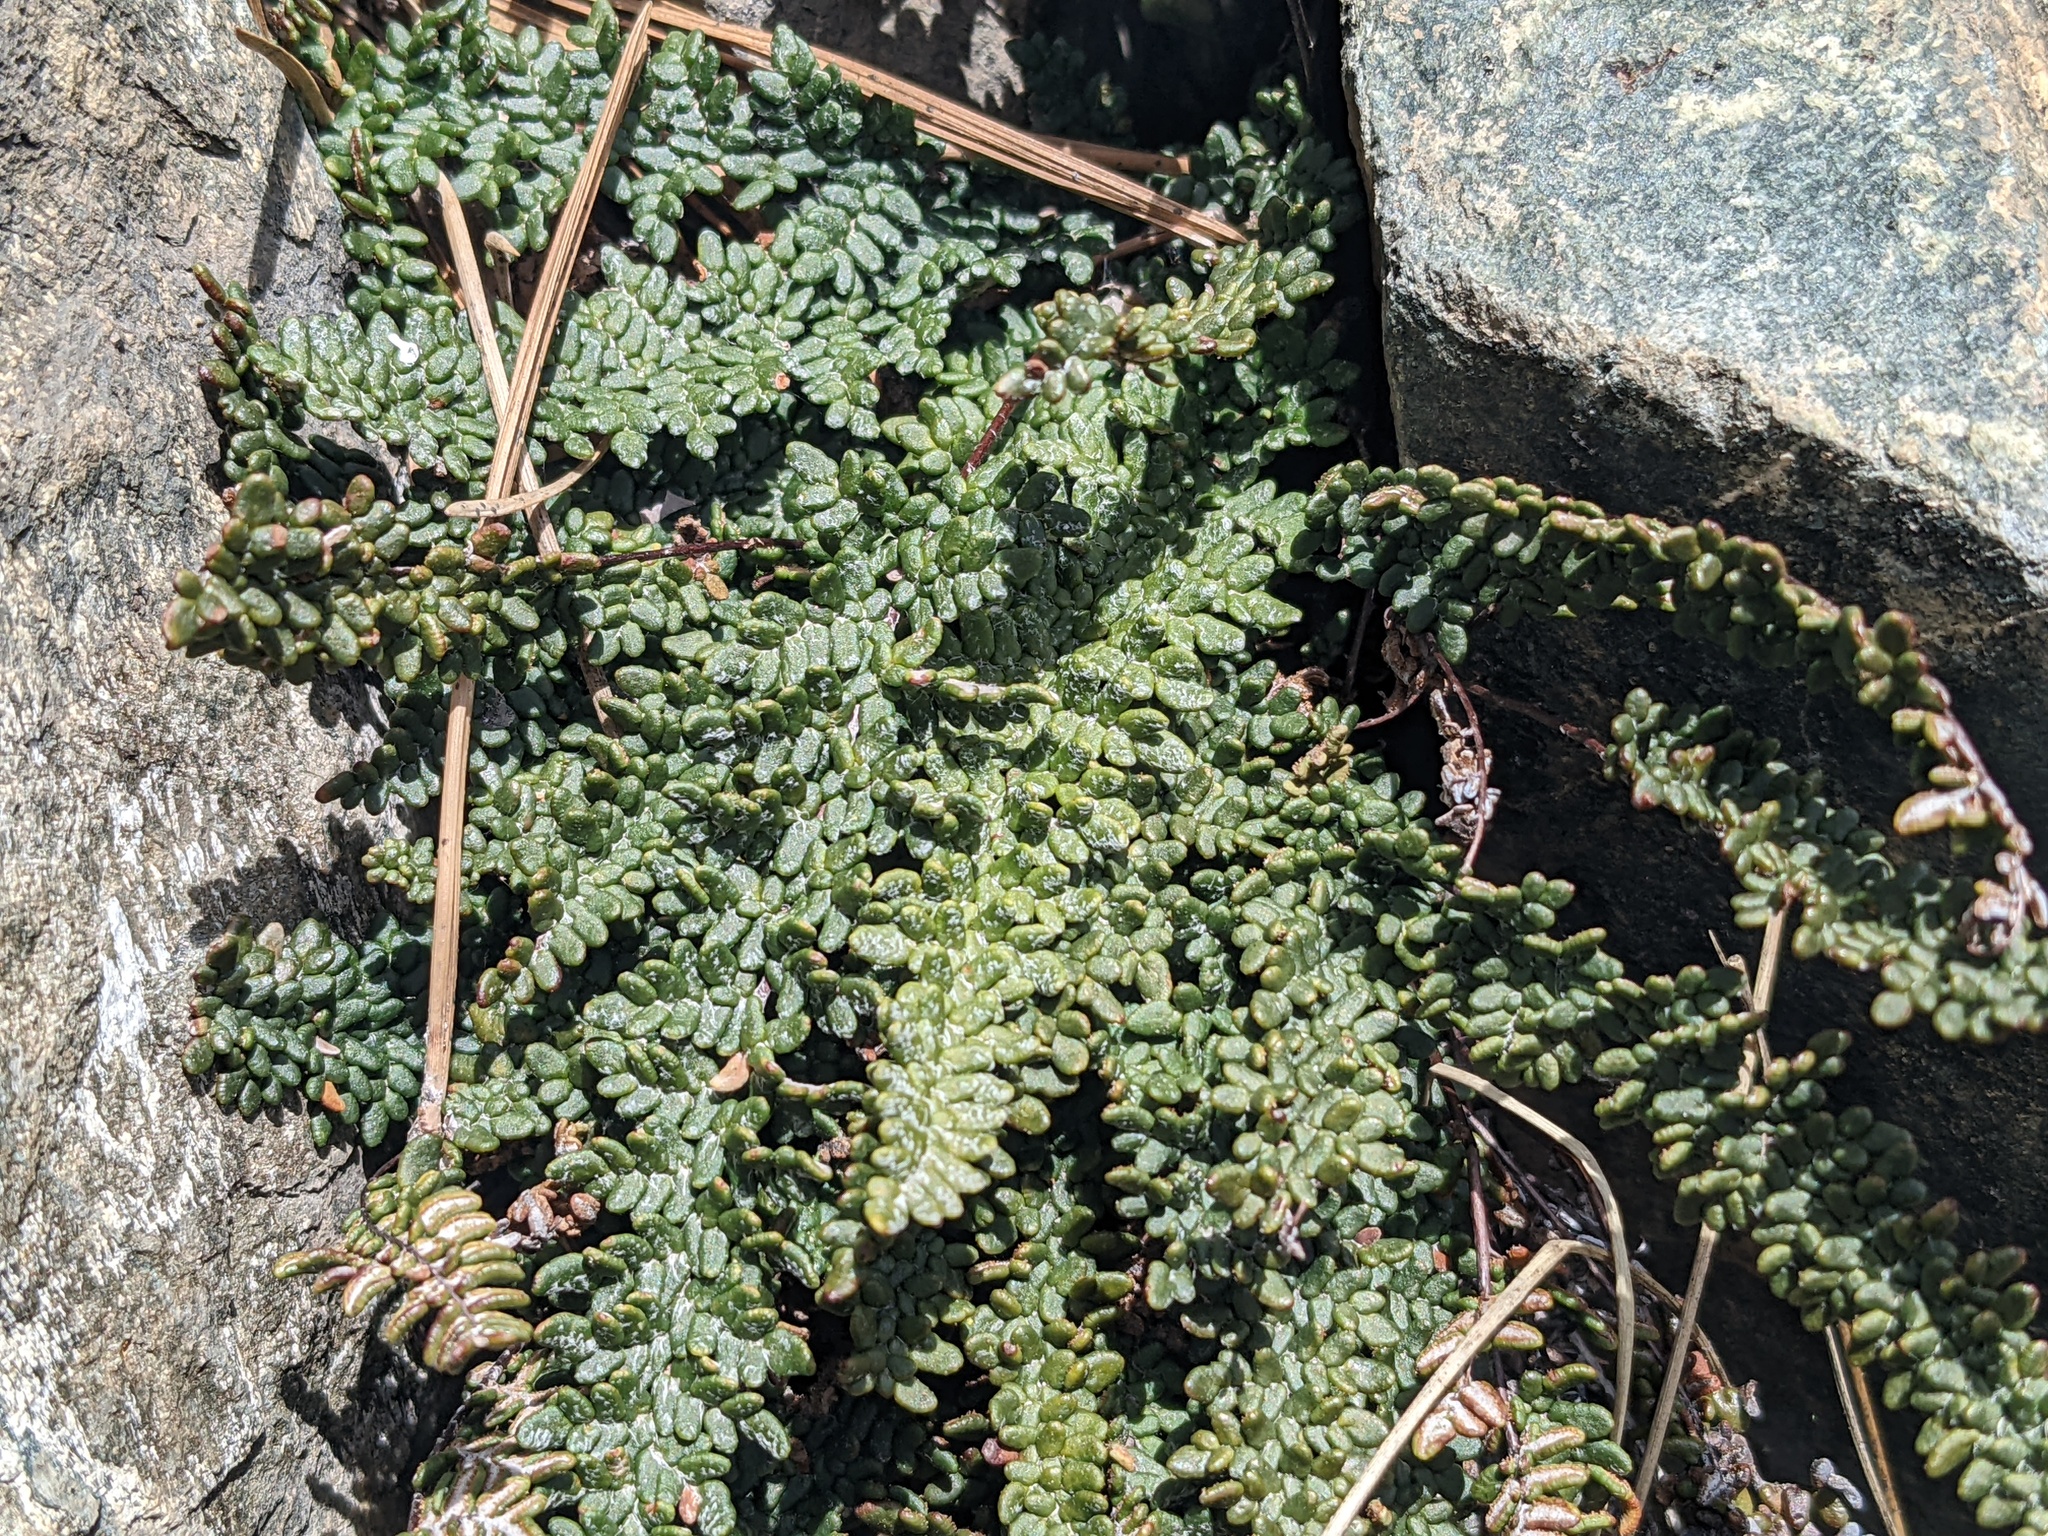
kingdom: Plantae
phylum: Tracheophyta
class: Polypodiopsida
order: Polypodiales
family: Pteridaceae
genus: Myriopteris
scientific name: Myriopteris gracillima
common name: Lace fern
